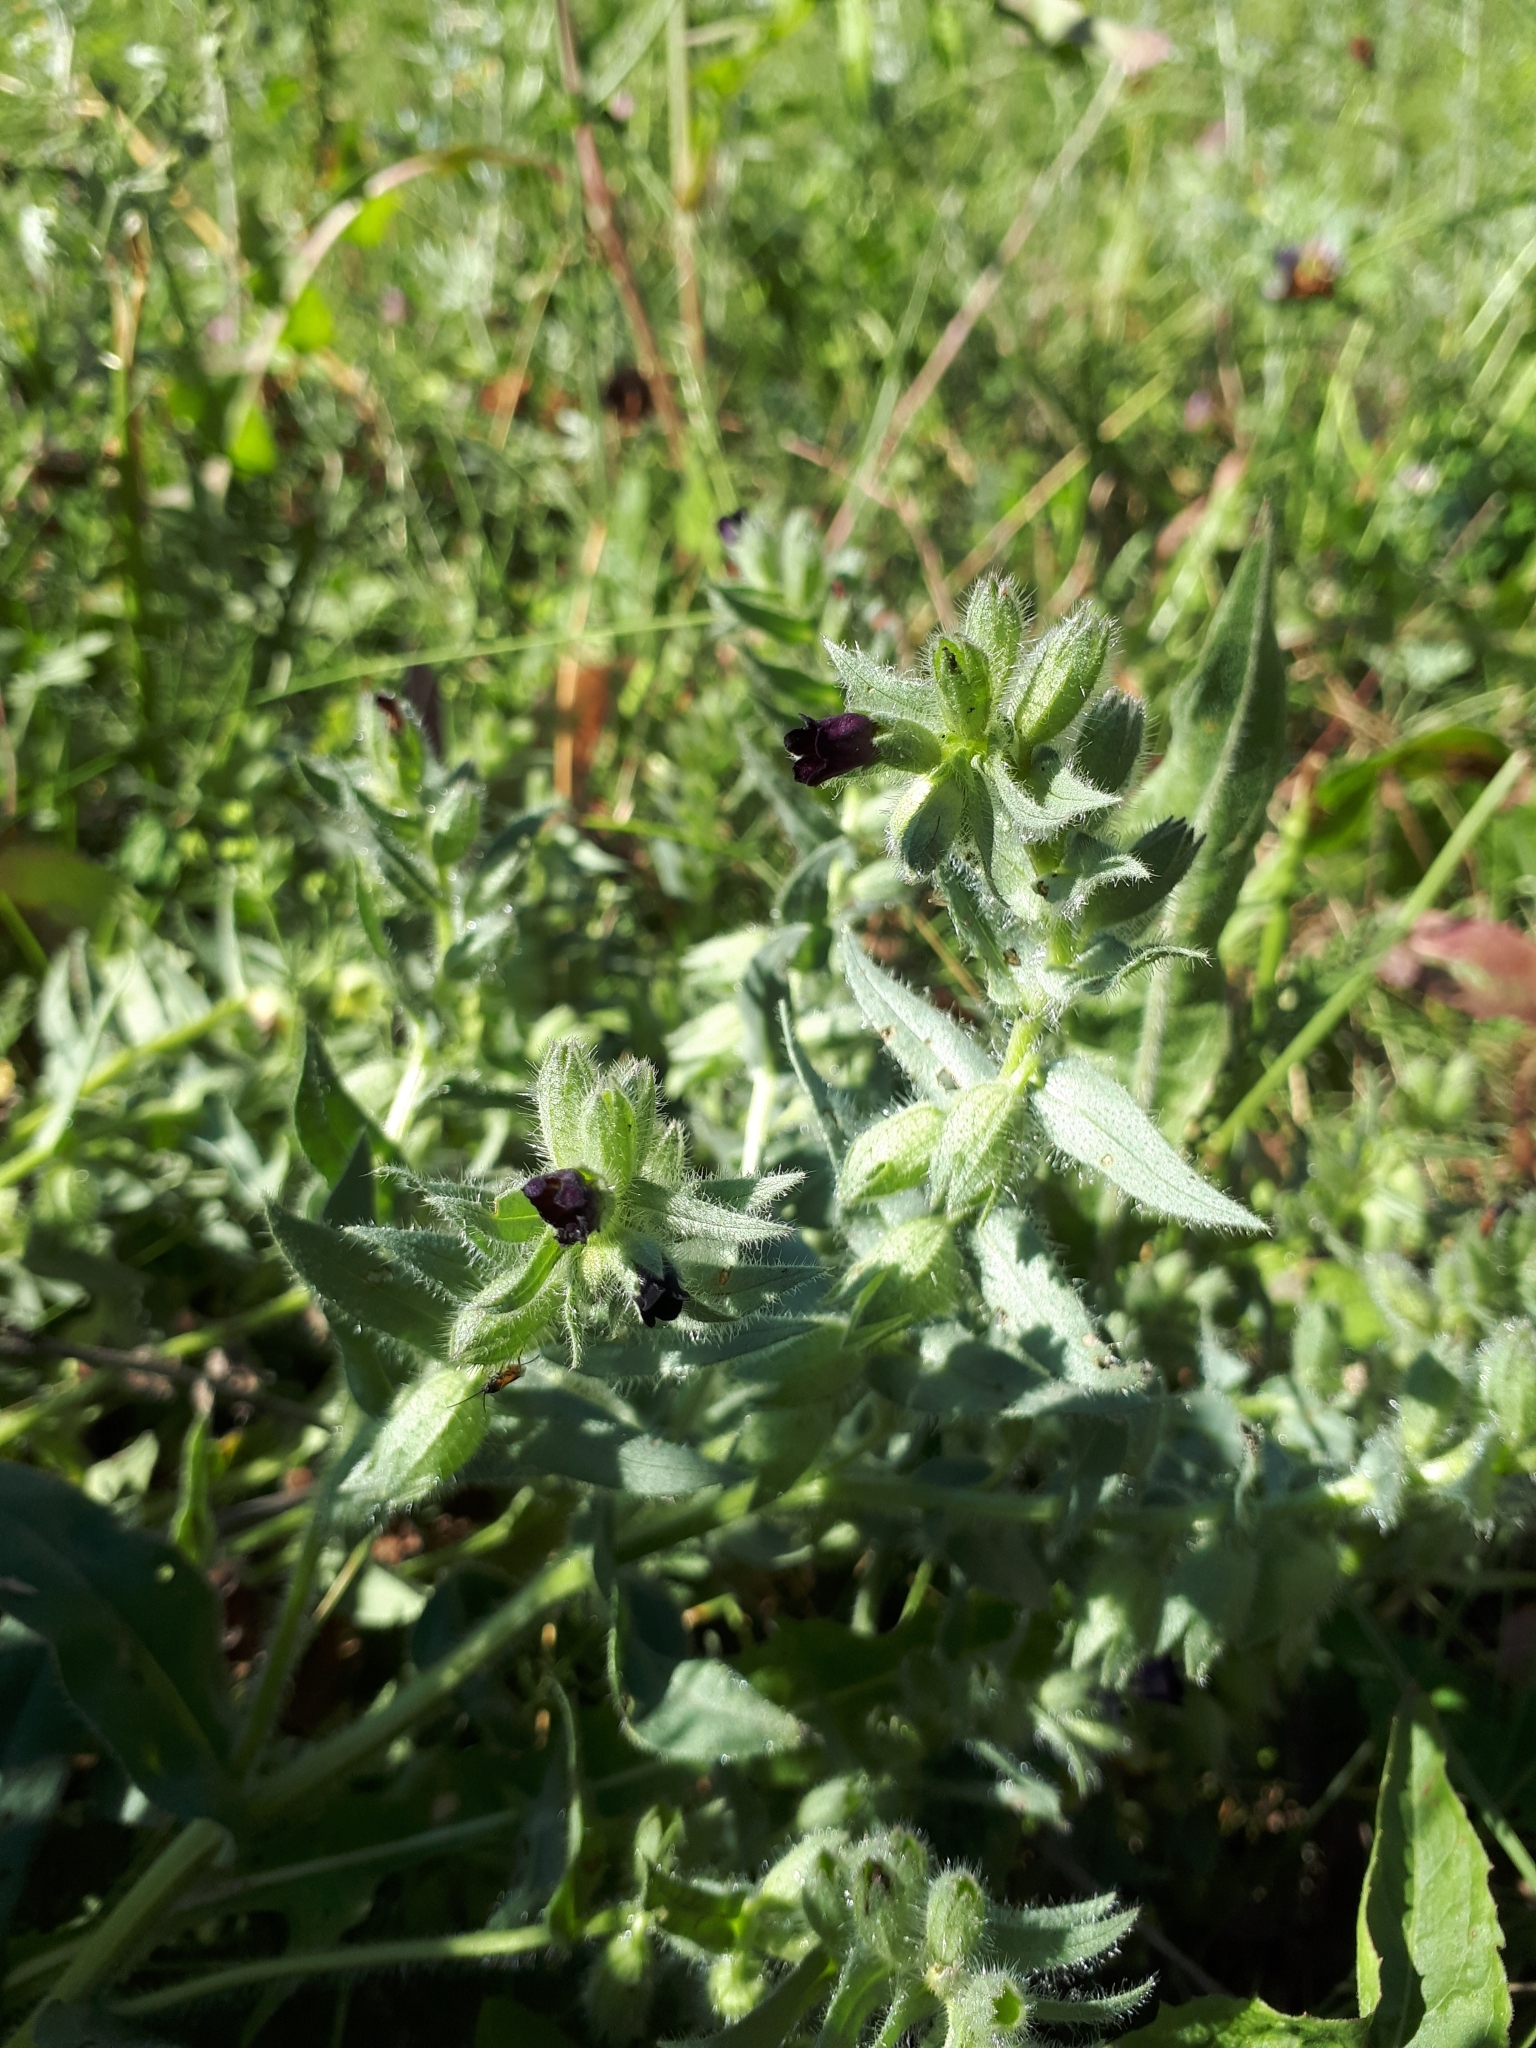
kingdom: Plantae
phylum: Tracheophyta
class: Magnoliopsida
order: Boraginales
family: Boraginaceae
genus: Nonea
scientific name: Nonea pulla
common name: Brown nonea
